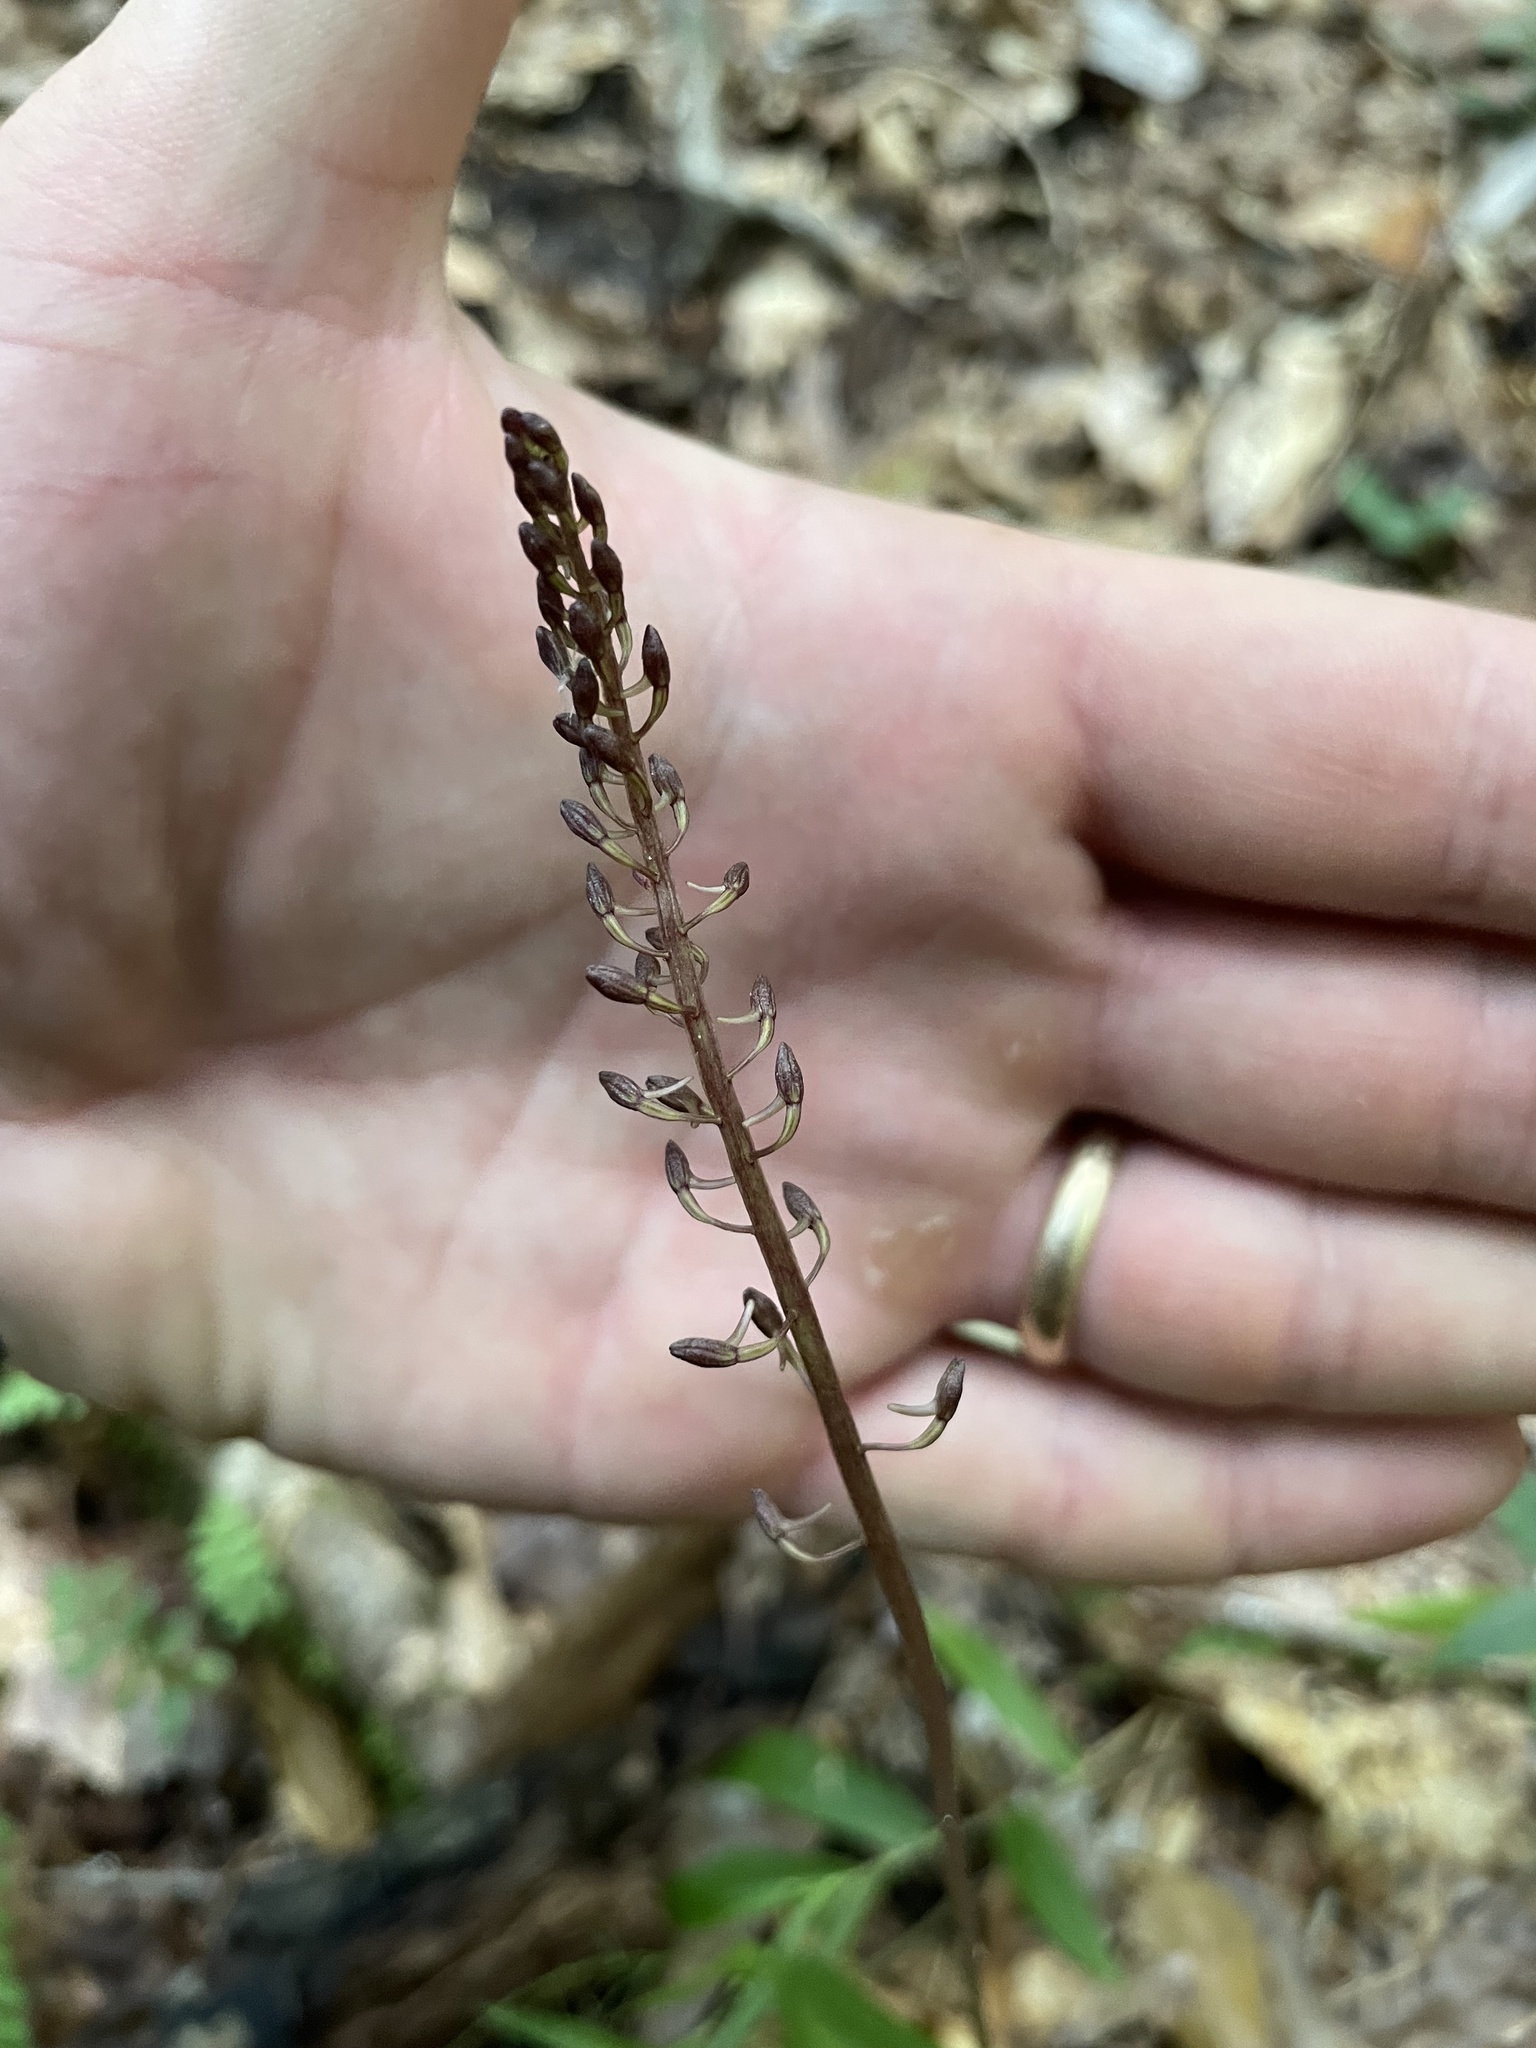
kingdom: Plantae
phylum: Tracheophyta
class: Liliopsida
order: Asparagales
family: Orchidaceae
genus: Tipularia
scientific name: Tipularia discolor
